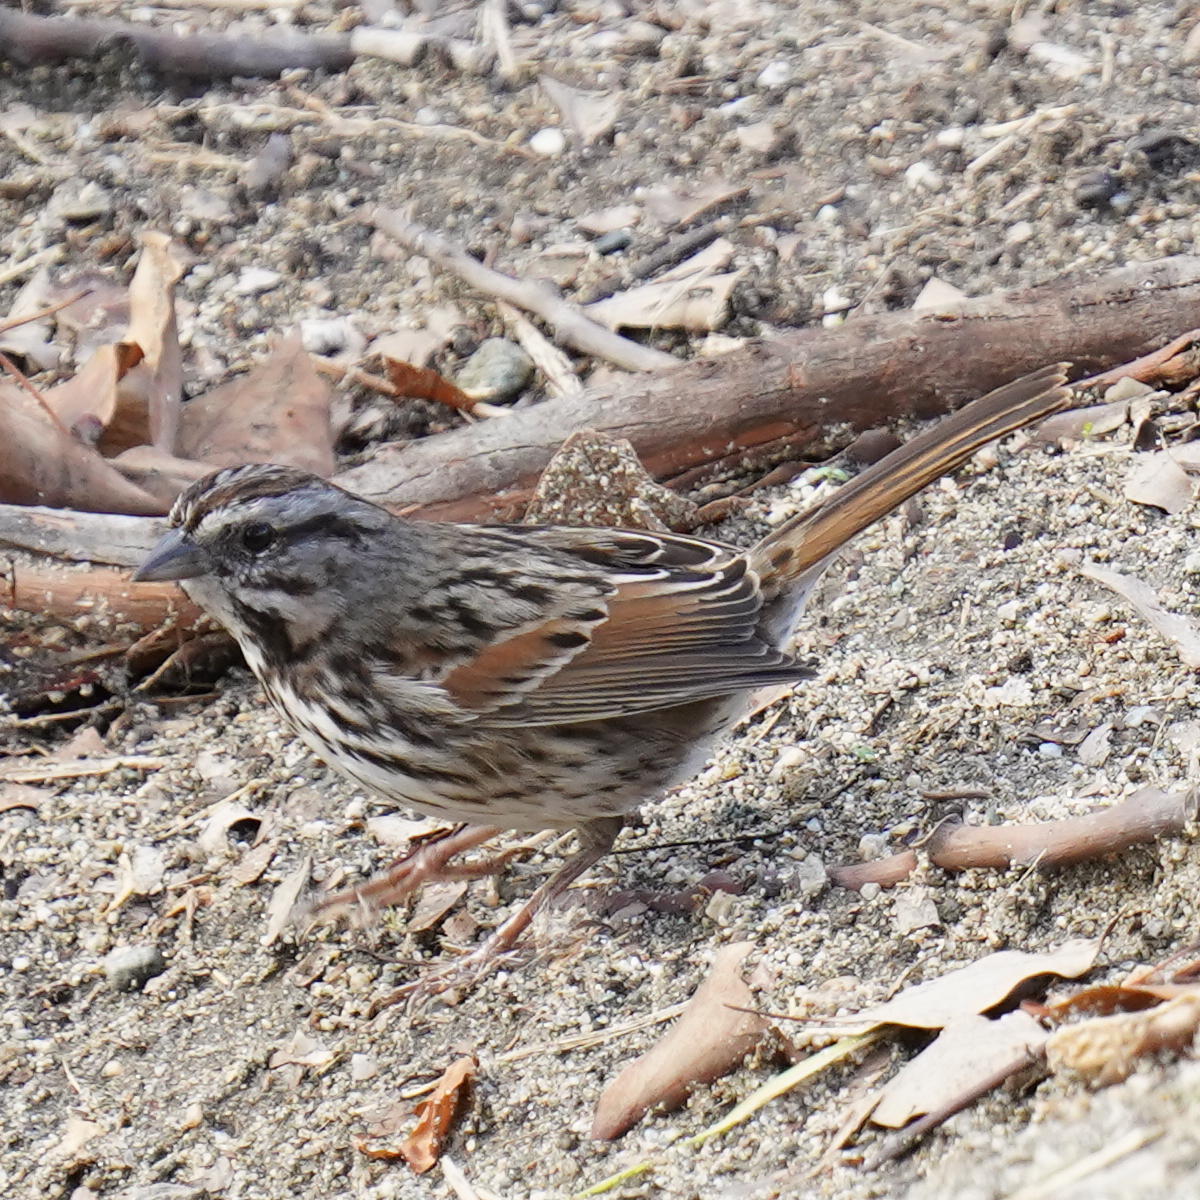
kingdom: Animalia
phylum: Chordata
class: Aves
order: Passeriformes
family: Passerellidae
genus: Melospiza
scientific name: Melospiza melodia
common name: Song sparrow
